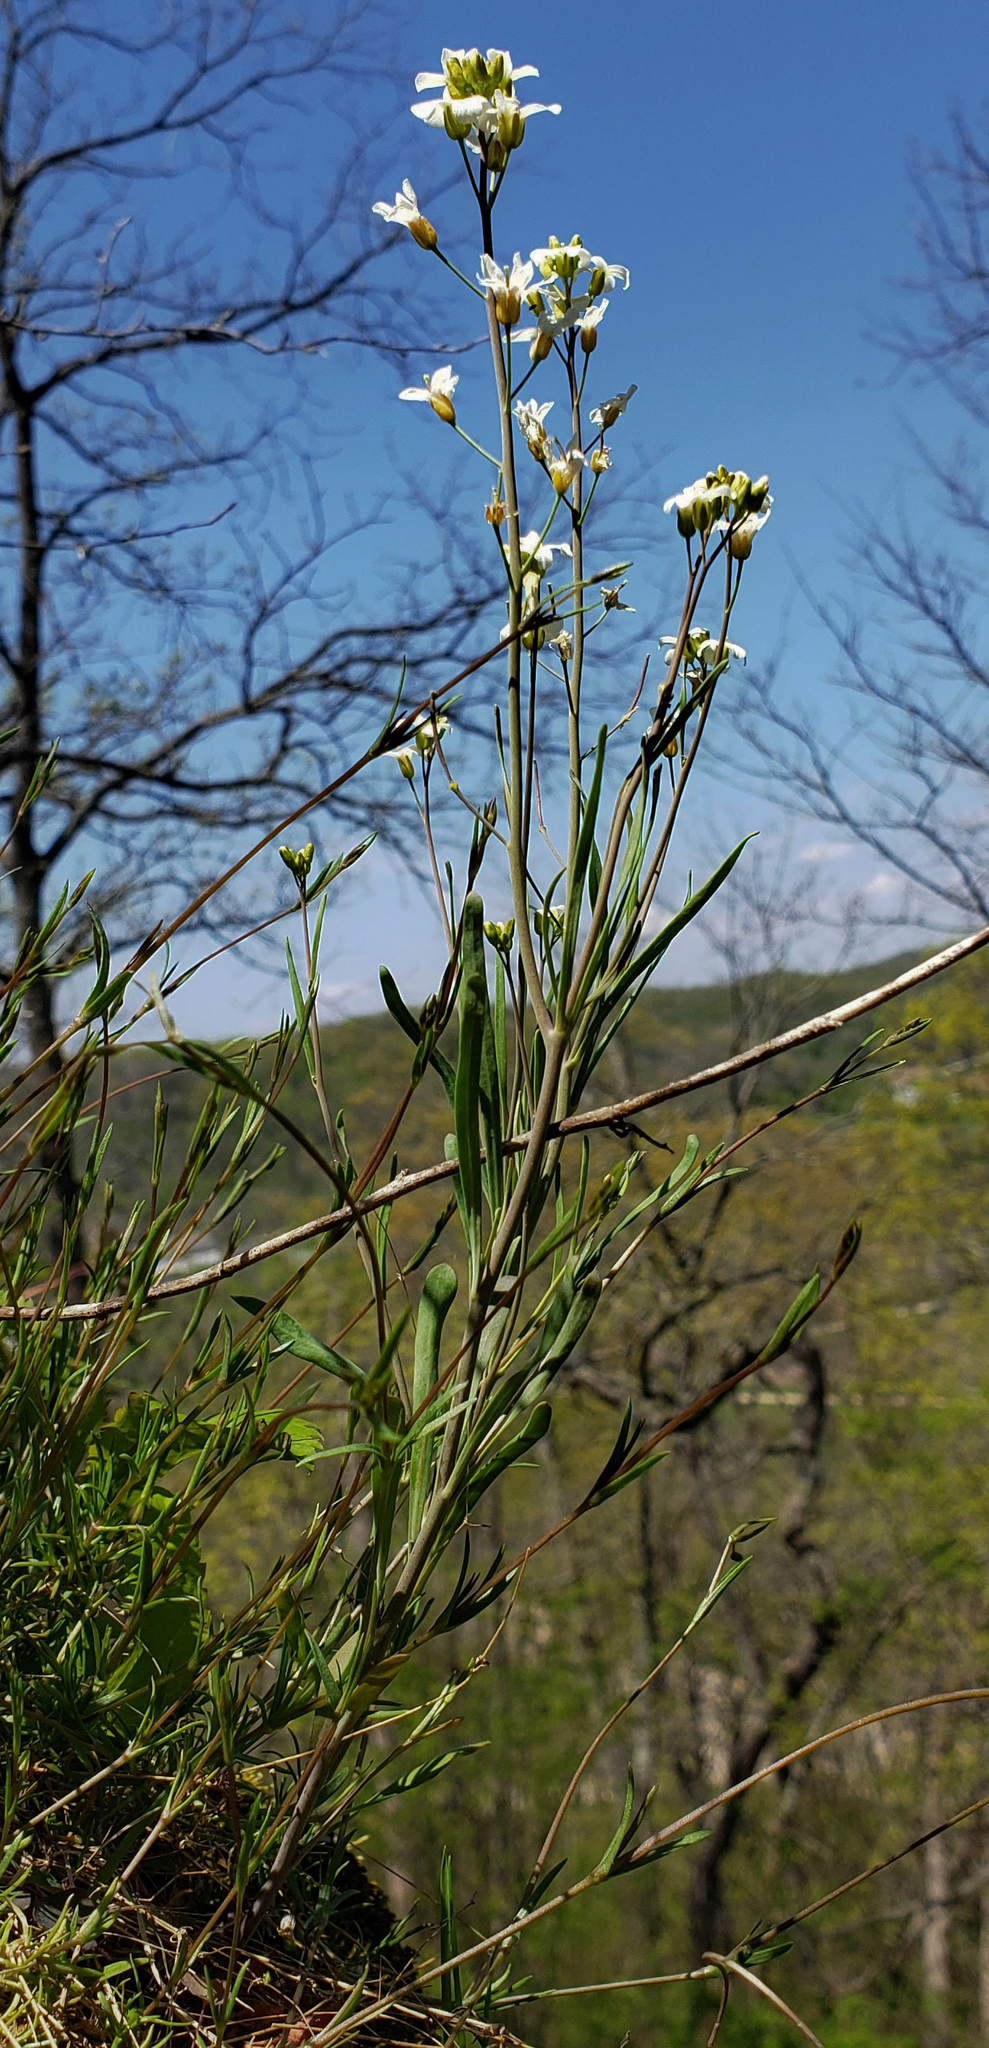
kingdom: Plantae
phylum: Tracheophyta
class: Magnoliopsida
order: Brassicales
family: Brassicaceae
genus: Arabidopsis
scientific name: Arabidopsis lyrata
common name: Lyrate rockcress
